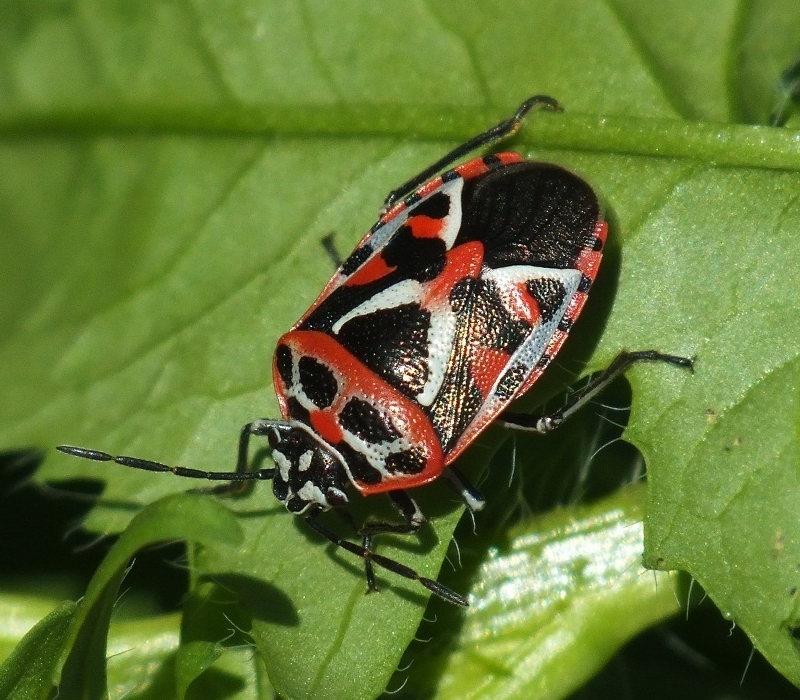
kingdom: Animalia
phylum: Arthropoda
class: Insecta
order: Hemiptera
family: Pentatomidae
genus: Eurydema
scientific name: Eurydema ornata
